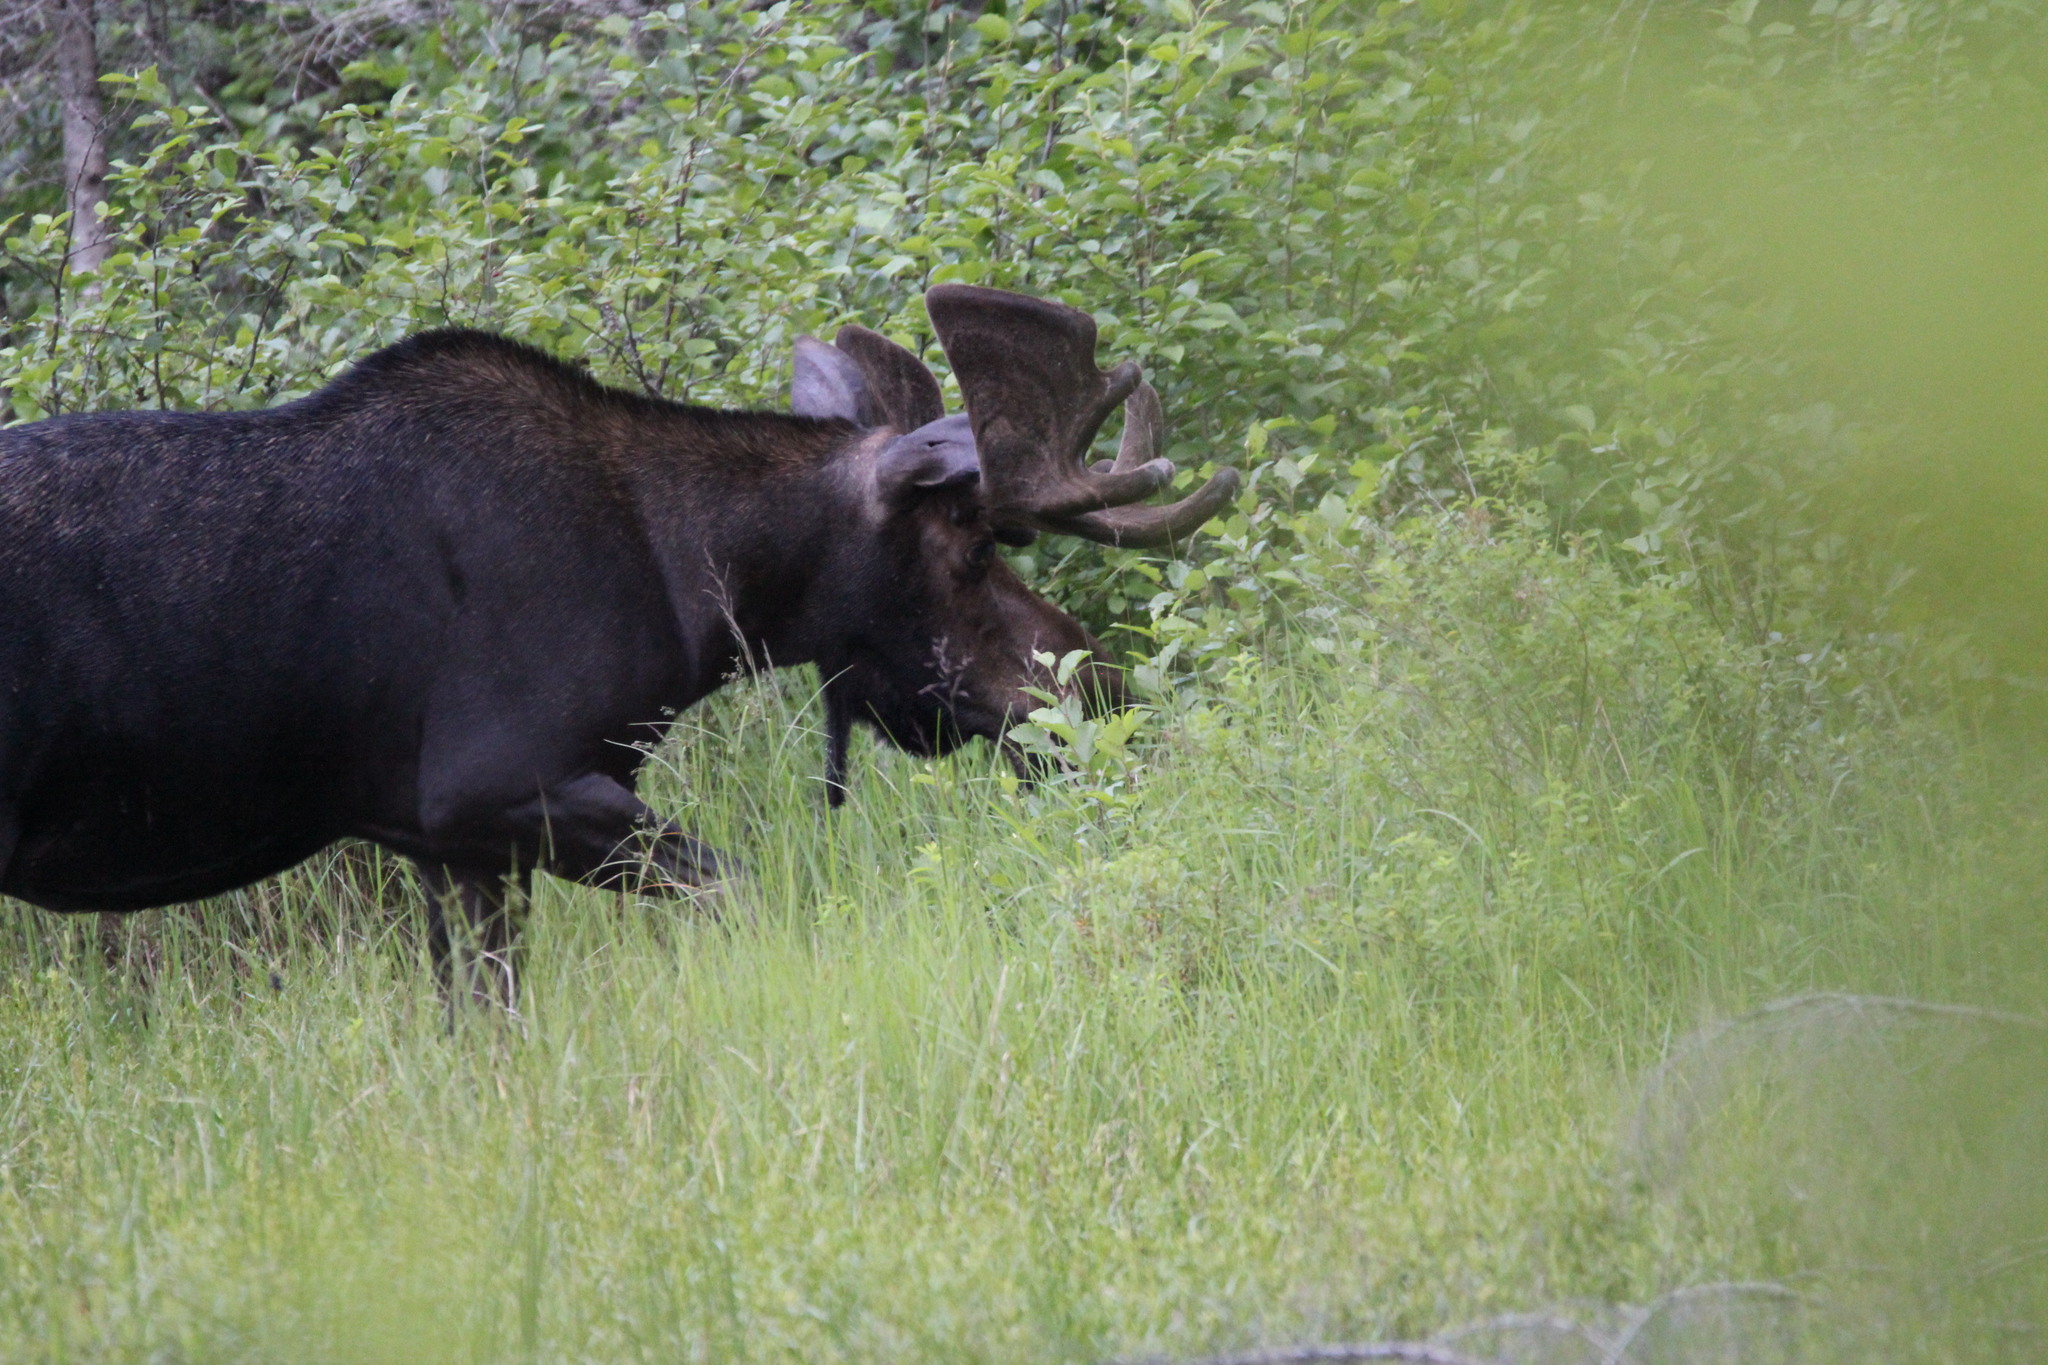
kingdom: Animalia
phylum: Chordata
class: Mammalia
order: Artiodactyla
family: Cervidae
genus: Alces
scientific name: Alces alces
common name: Moose
